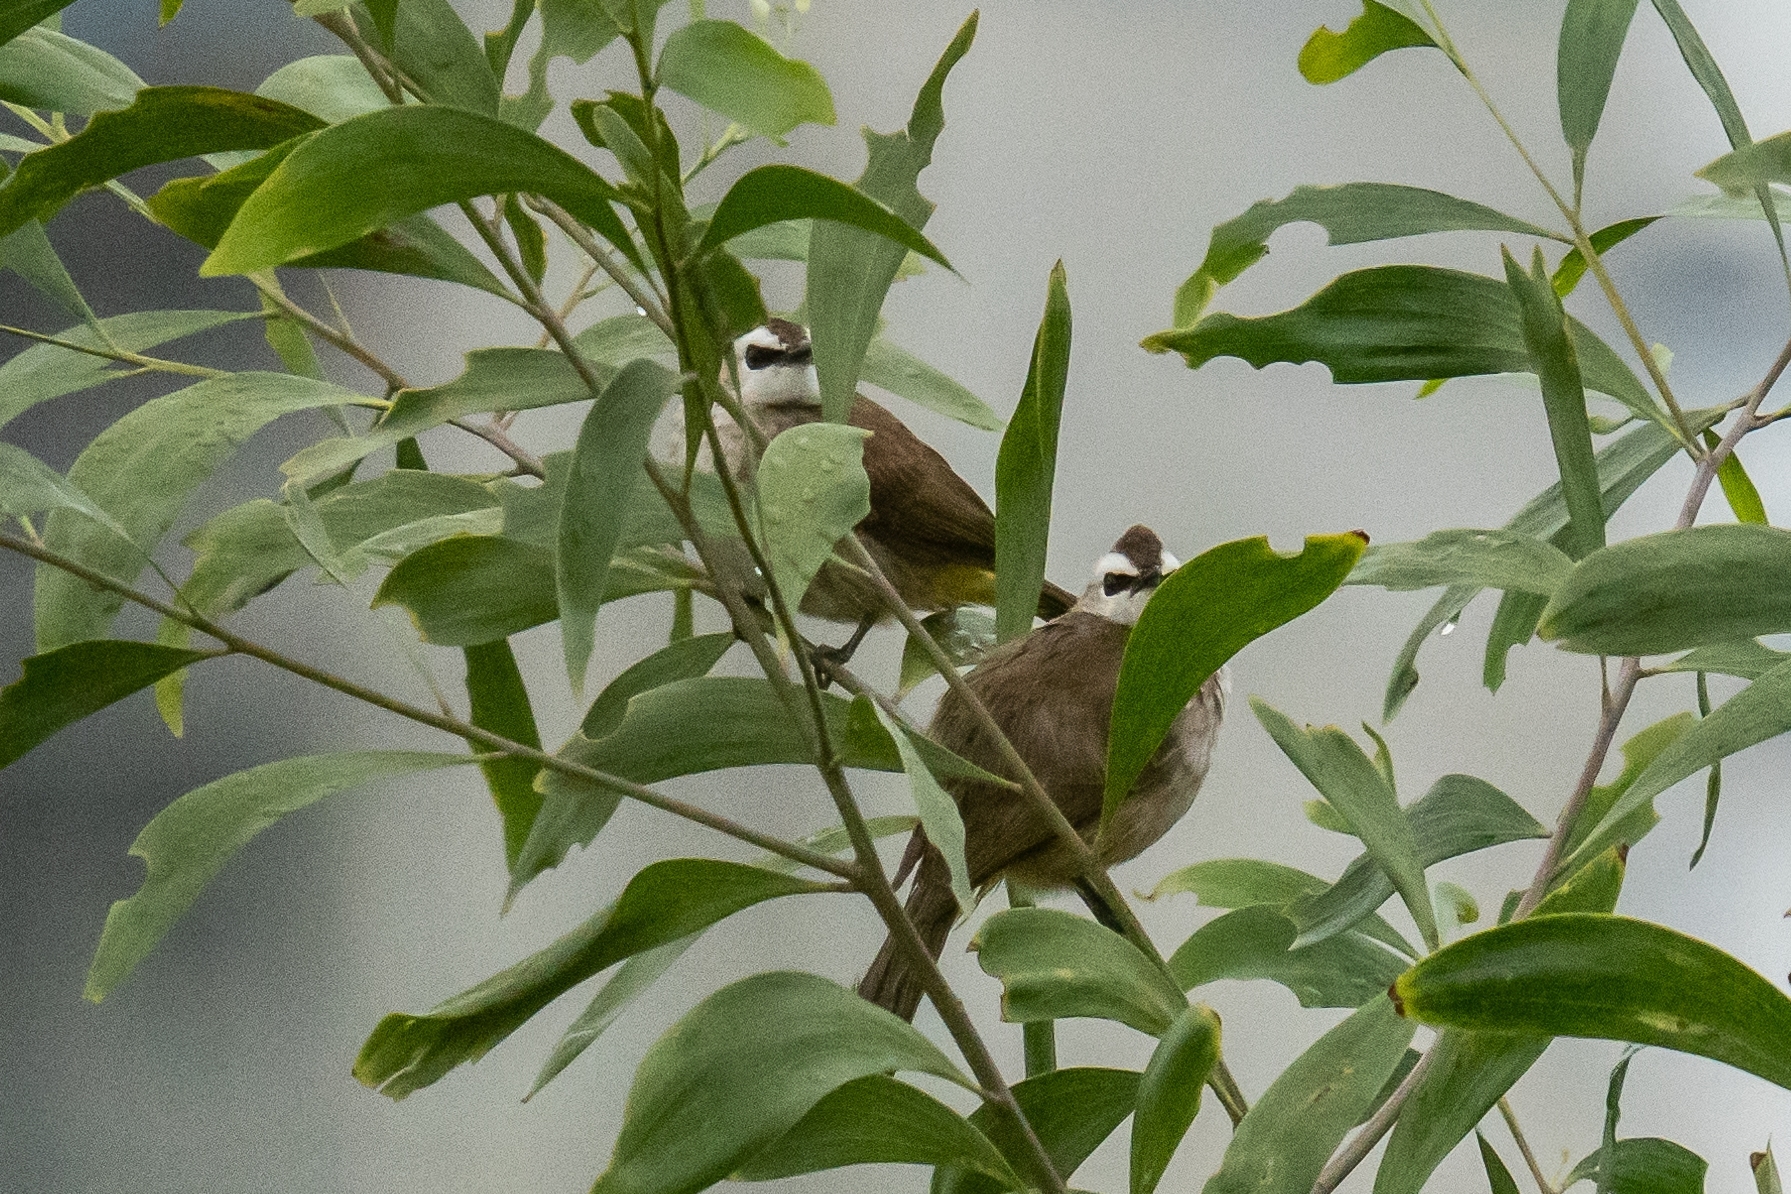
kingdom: Animalia
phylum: Chordata
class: Aves
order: Passeriformes
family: Pycnonotidae
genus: Pycnonotus
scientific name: Pycnonotus goiavier
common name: Yellow-vented bulbul
